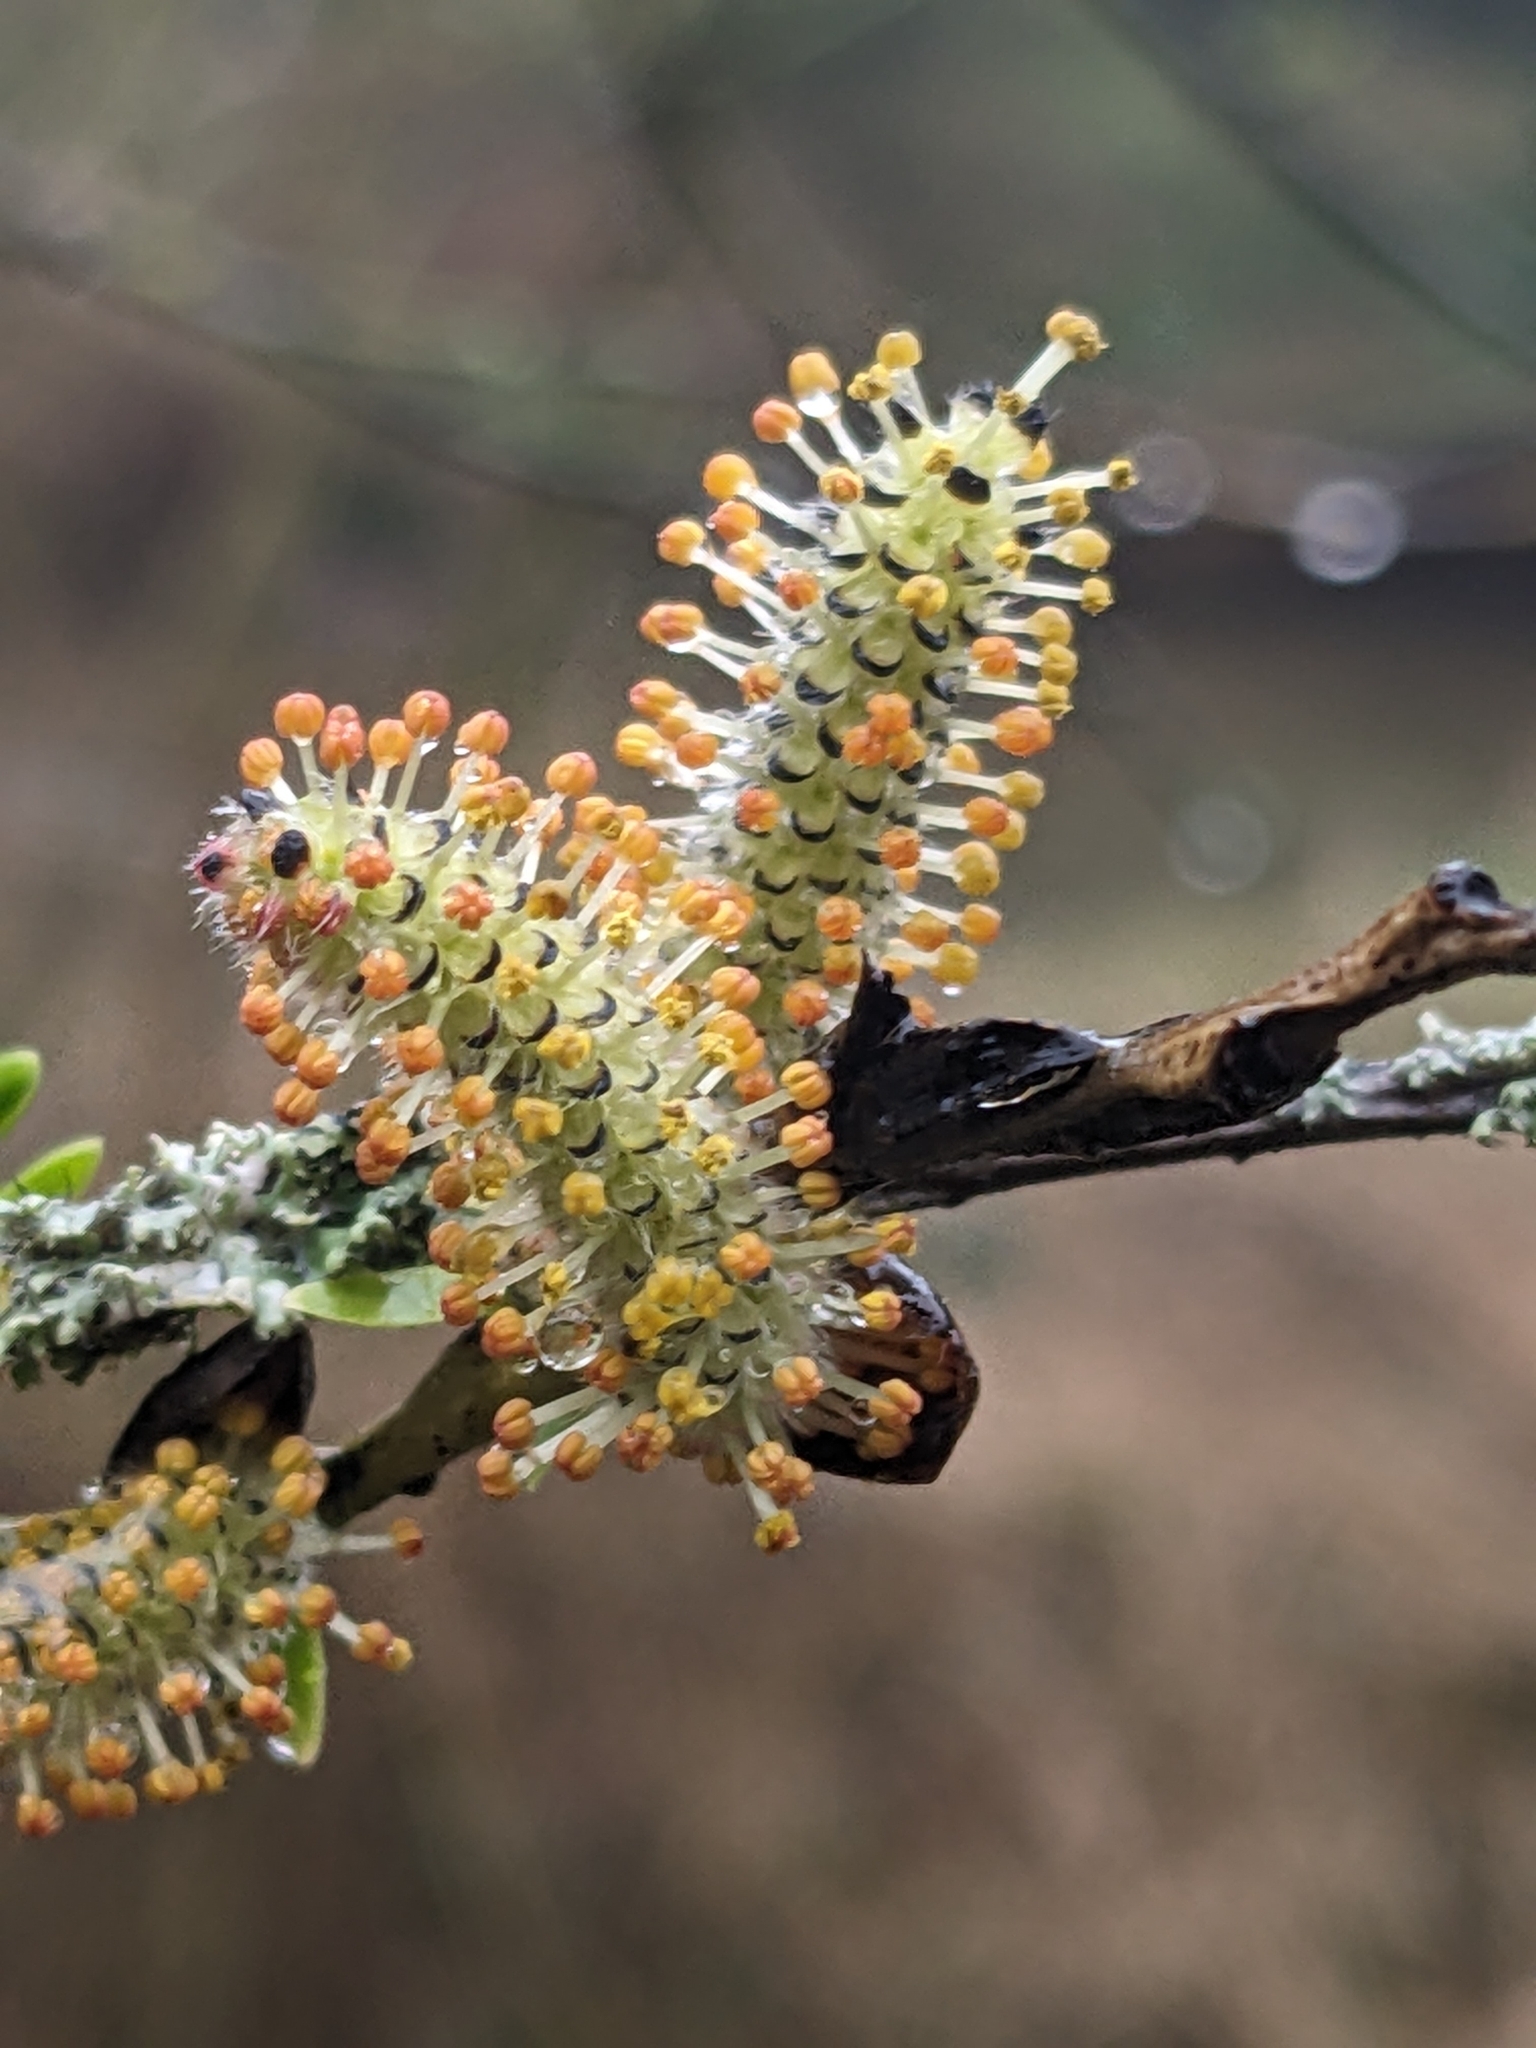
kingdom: Plantae
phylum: Tracheophyta
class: Magnoliopsida
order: Malpighiales
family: Salicaceae
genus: Salix
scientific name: Salix purpurea
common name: Purple willow
